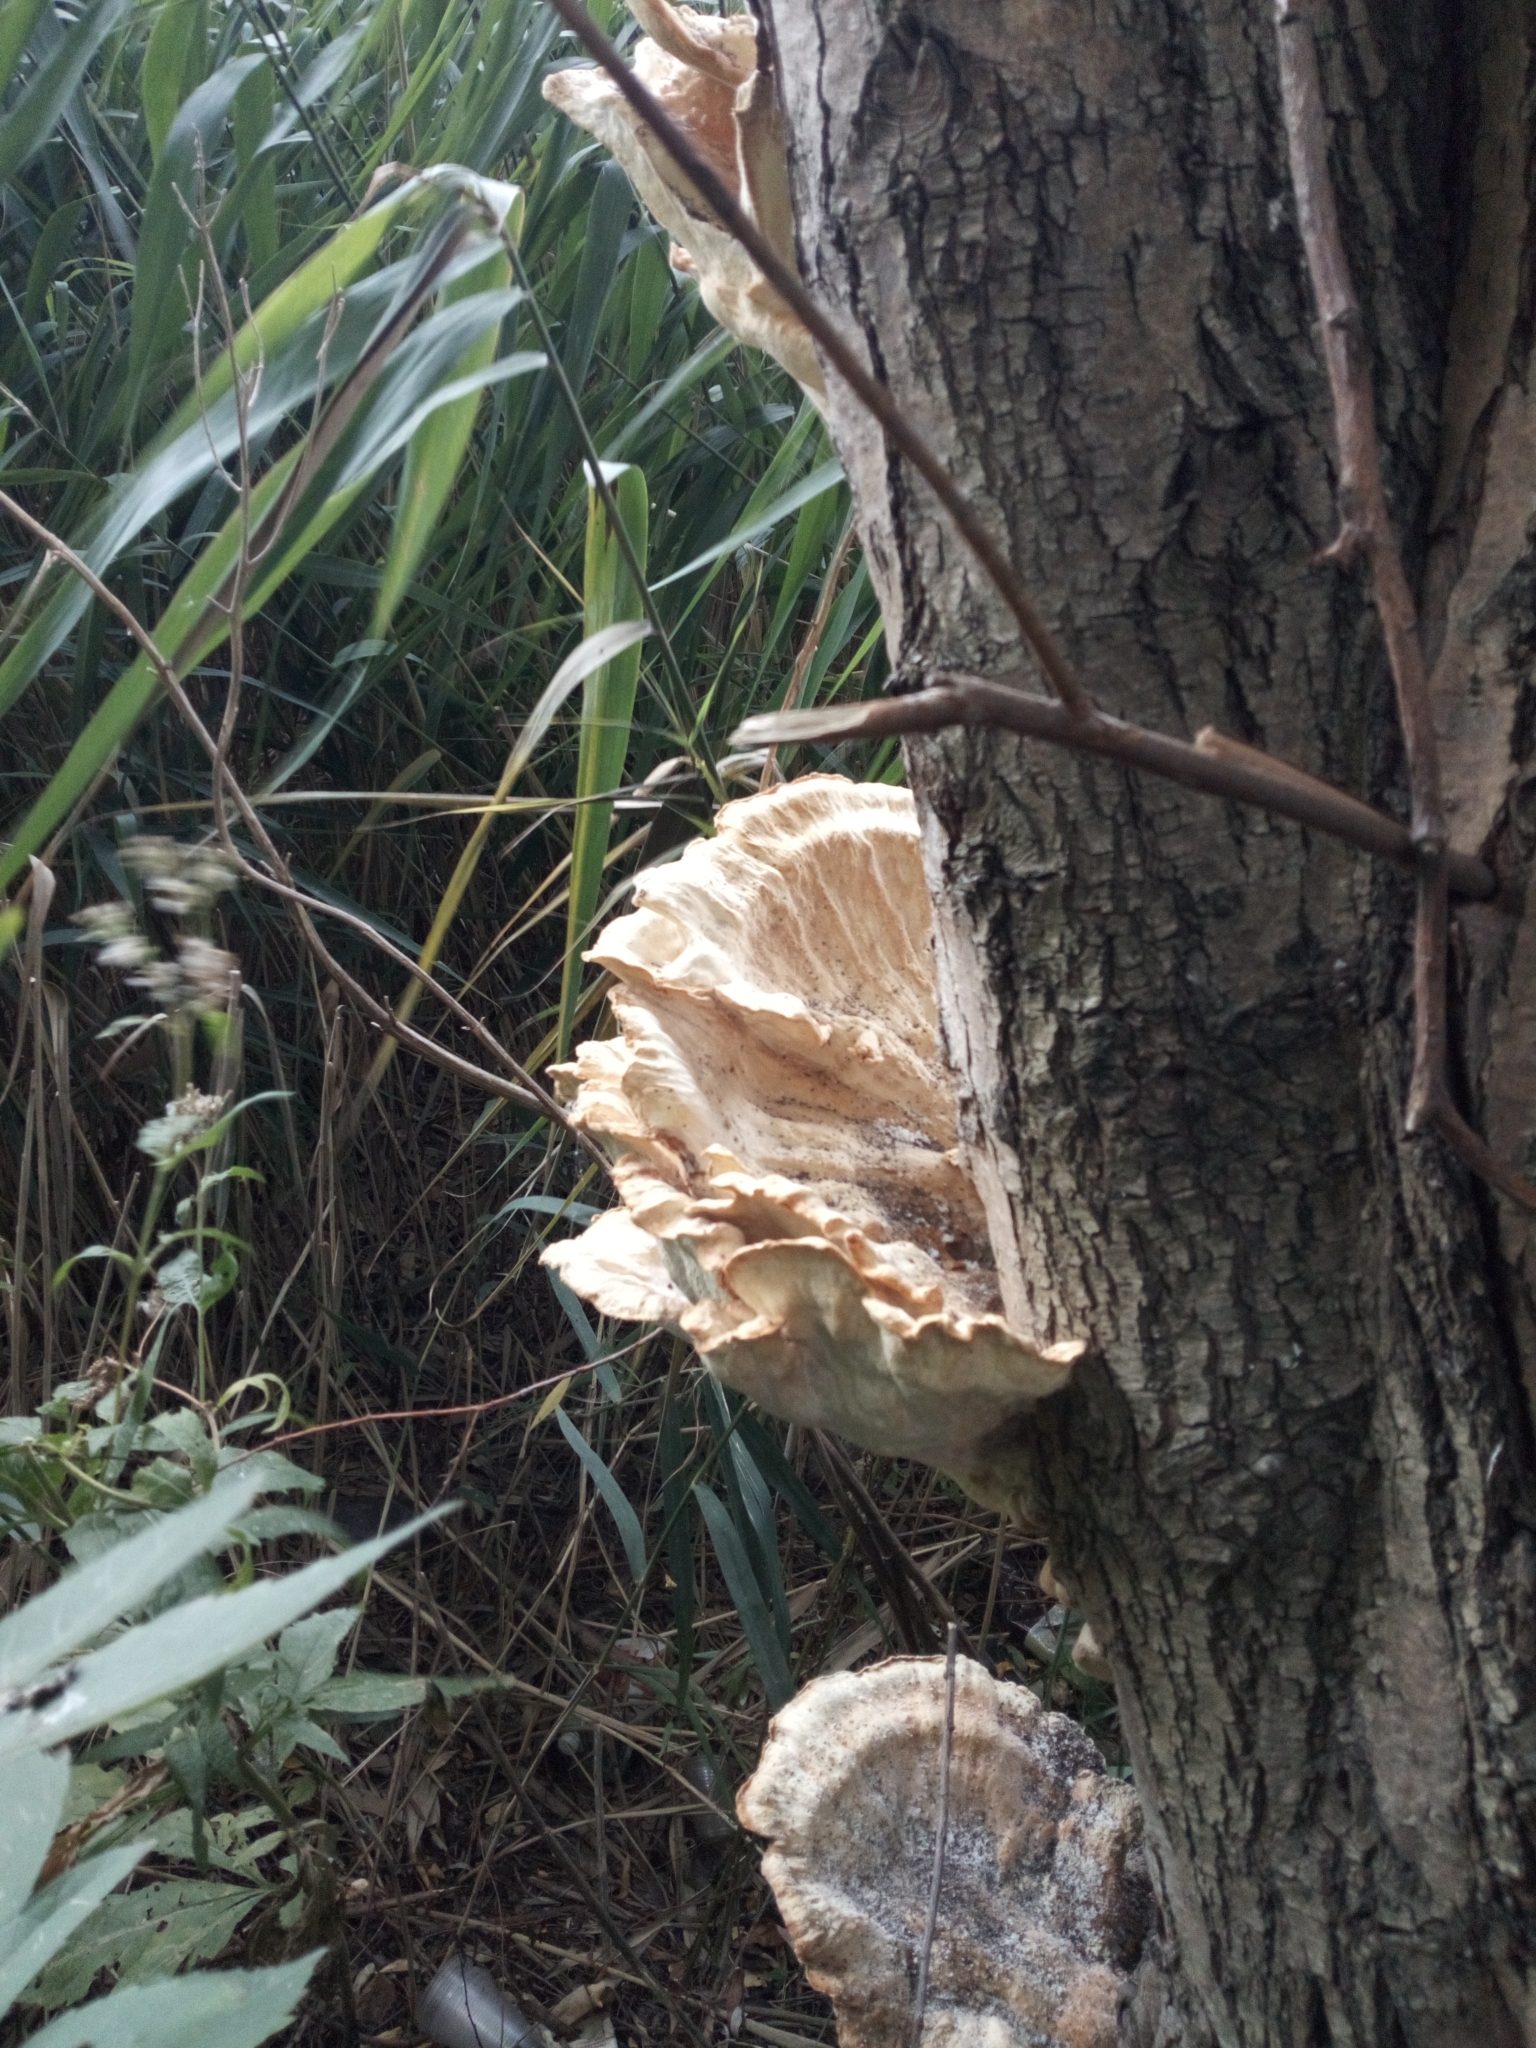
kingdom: Fungi
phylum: Basidiomycota
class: Agaricomycetes
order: Polyporales
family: Laetiporaceae
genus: Laetiporus
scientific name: Laetiporus sulphureus
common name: Chicken of the woods
